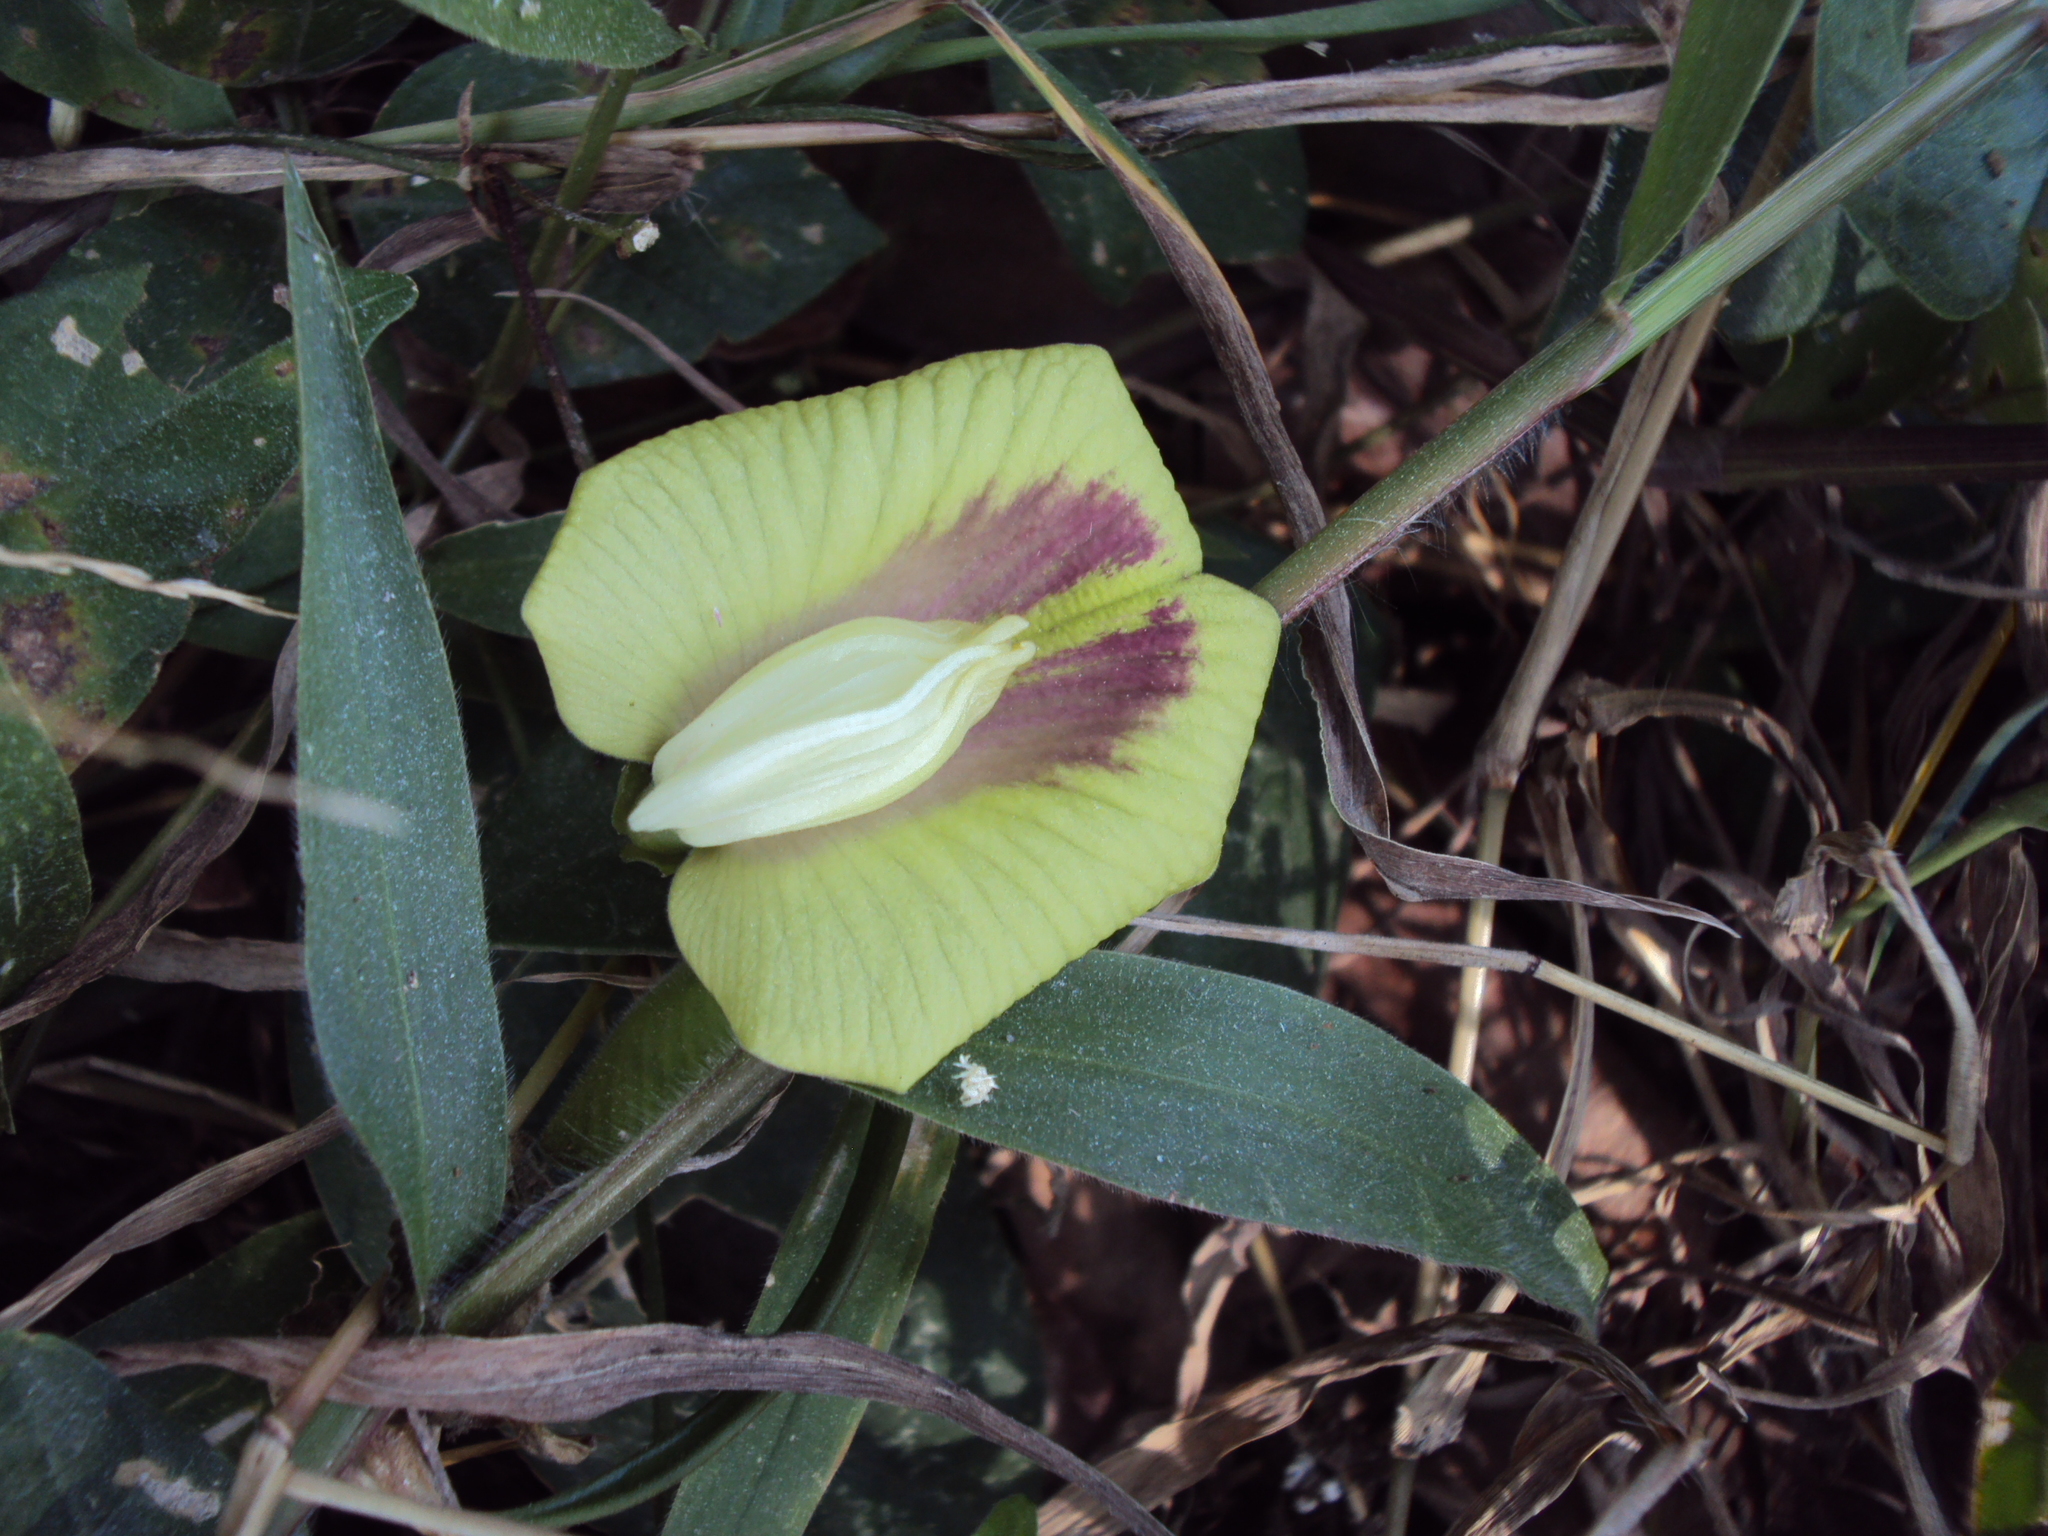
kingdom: Plantae
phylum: Tracheophyta
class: Magnoliopsida
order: Fabales
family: Fabaceae
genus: Centrosema
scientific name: Centrosema plumieri
